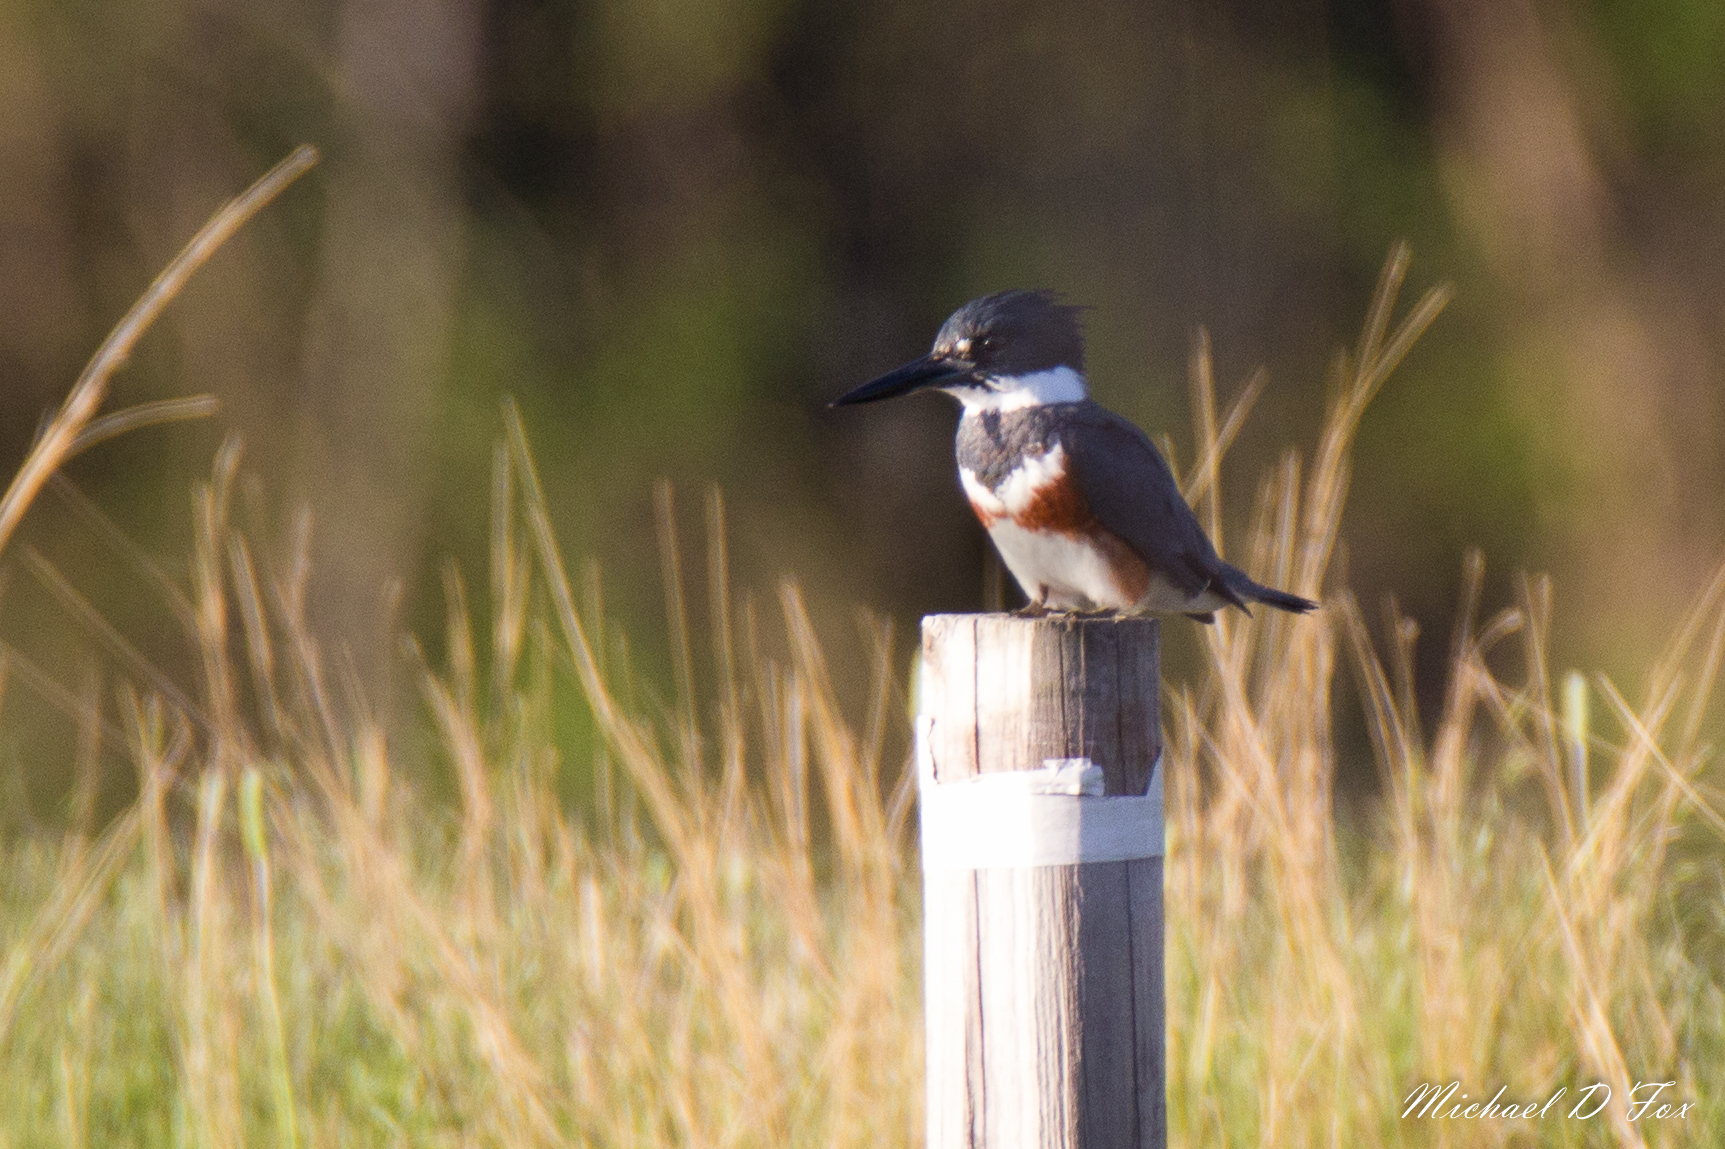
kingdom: Animalia
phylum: Chordata
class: Aves
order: Coraciiformes
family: Alcedinidae
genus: Megaceryle
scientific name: Megaceryle alcyon
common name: Belted kingfisher
